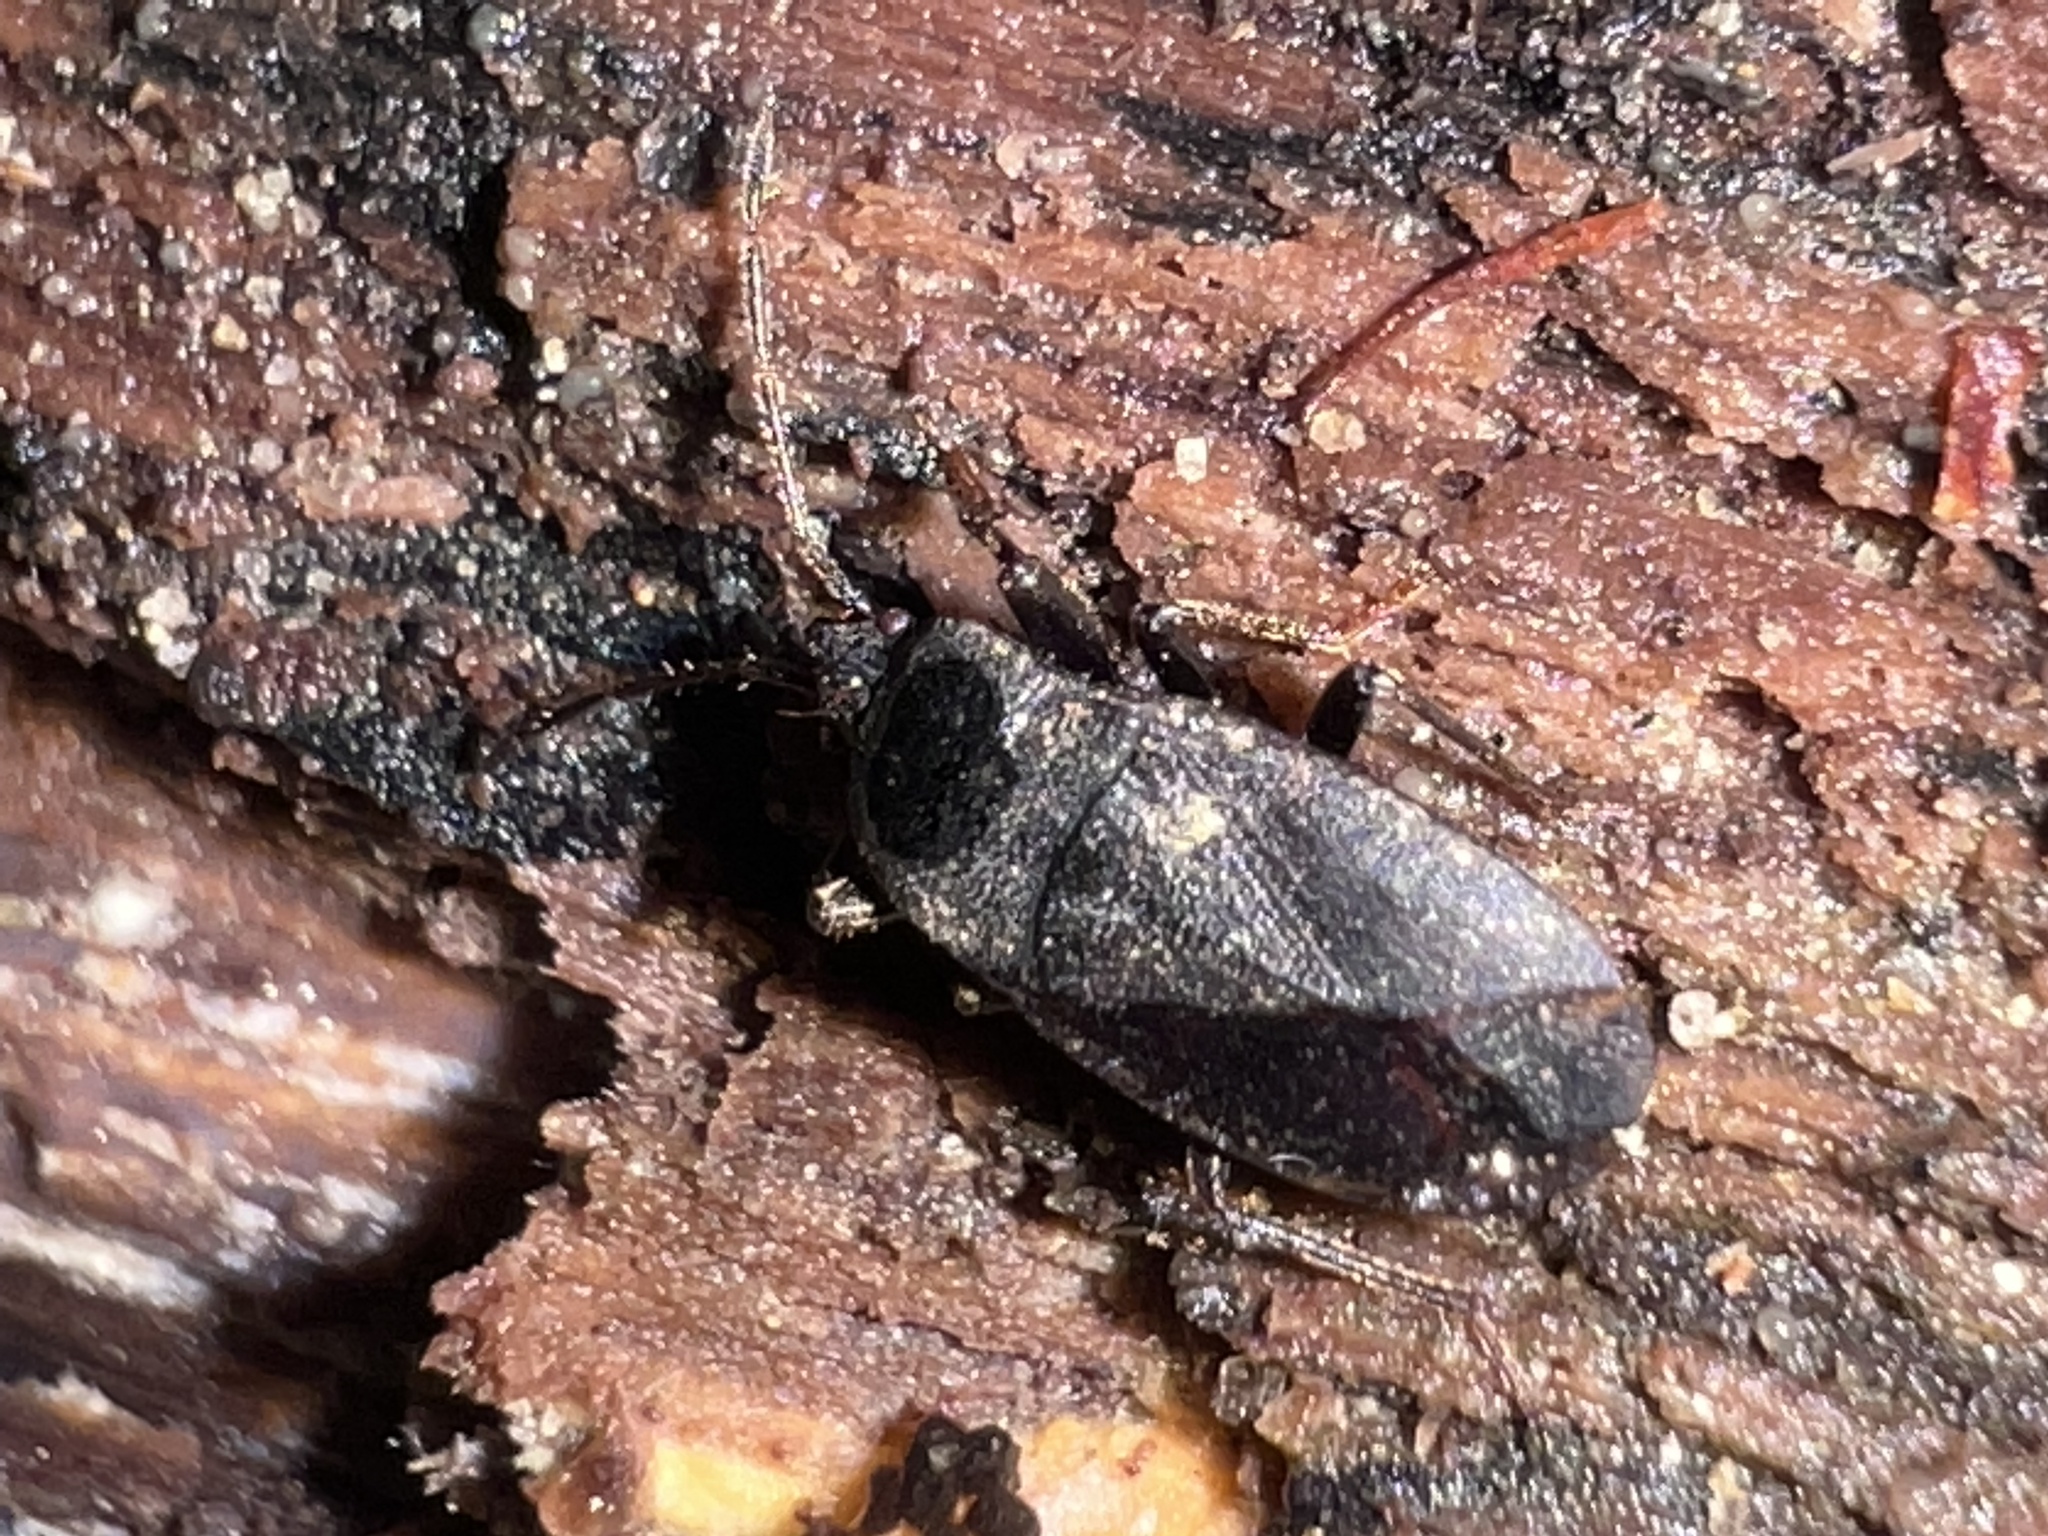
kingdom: Animalia
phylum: Arthropoda
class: Insecta
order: Hemiptera
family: Rhyparochromidae
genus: Drymus
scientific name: Drymus crassus
